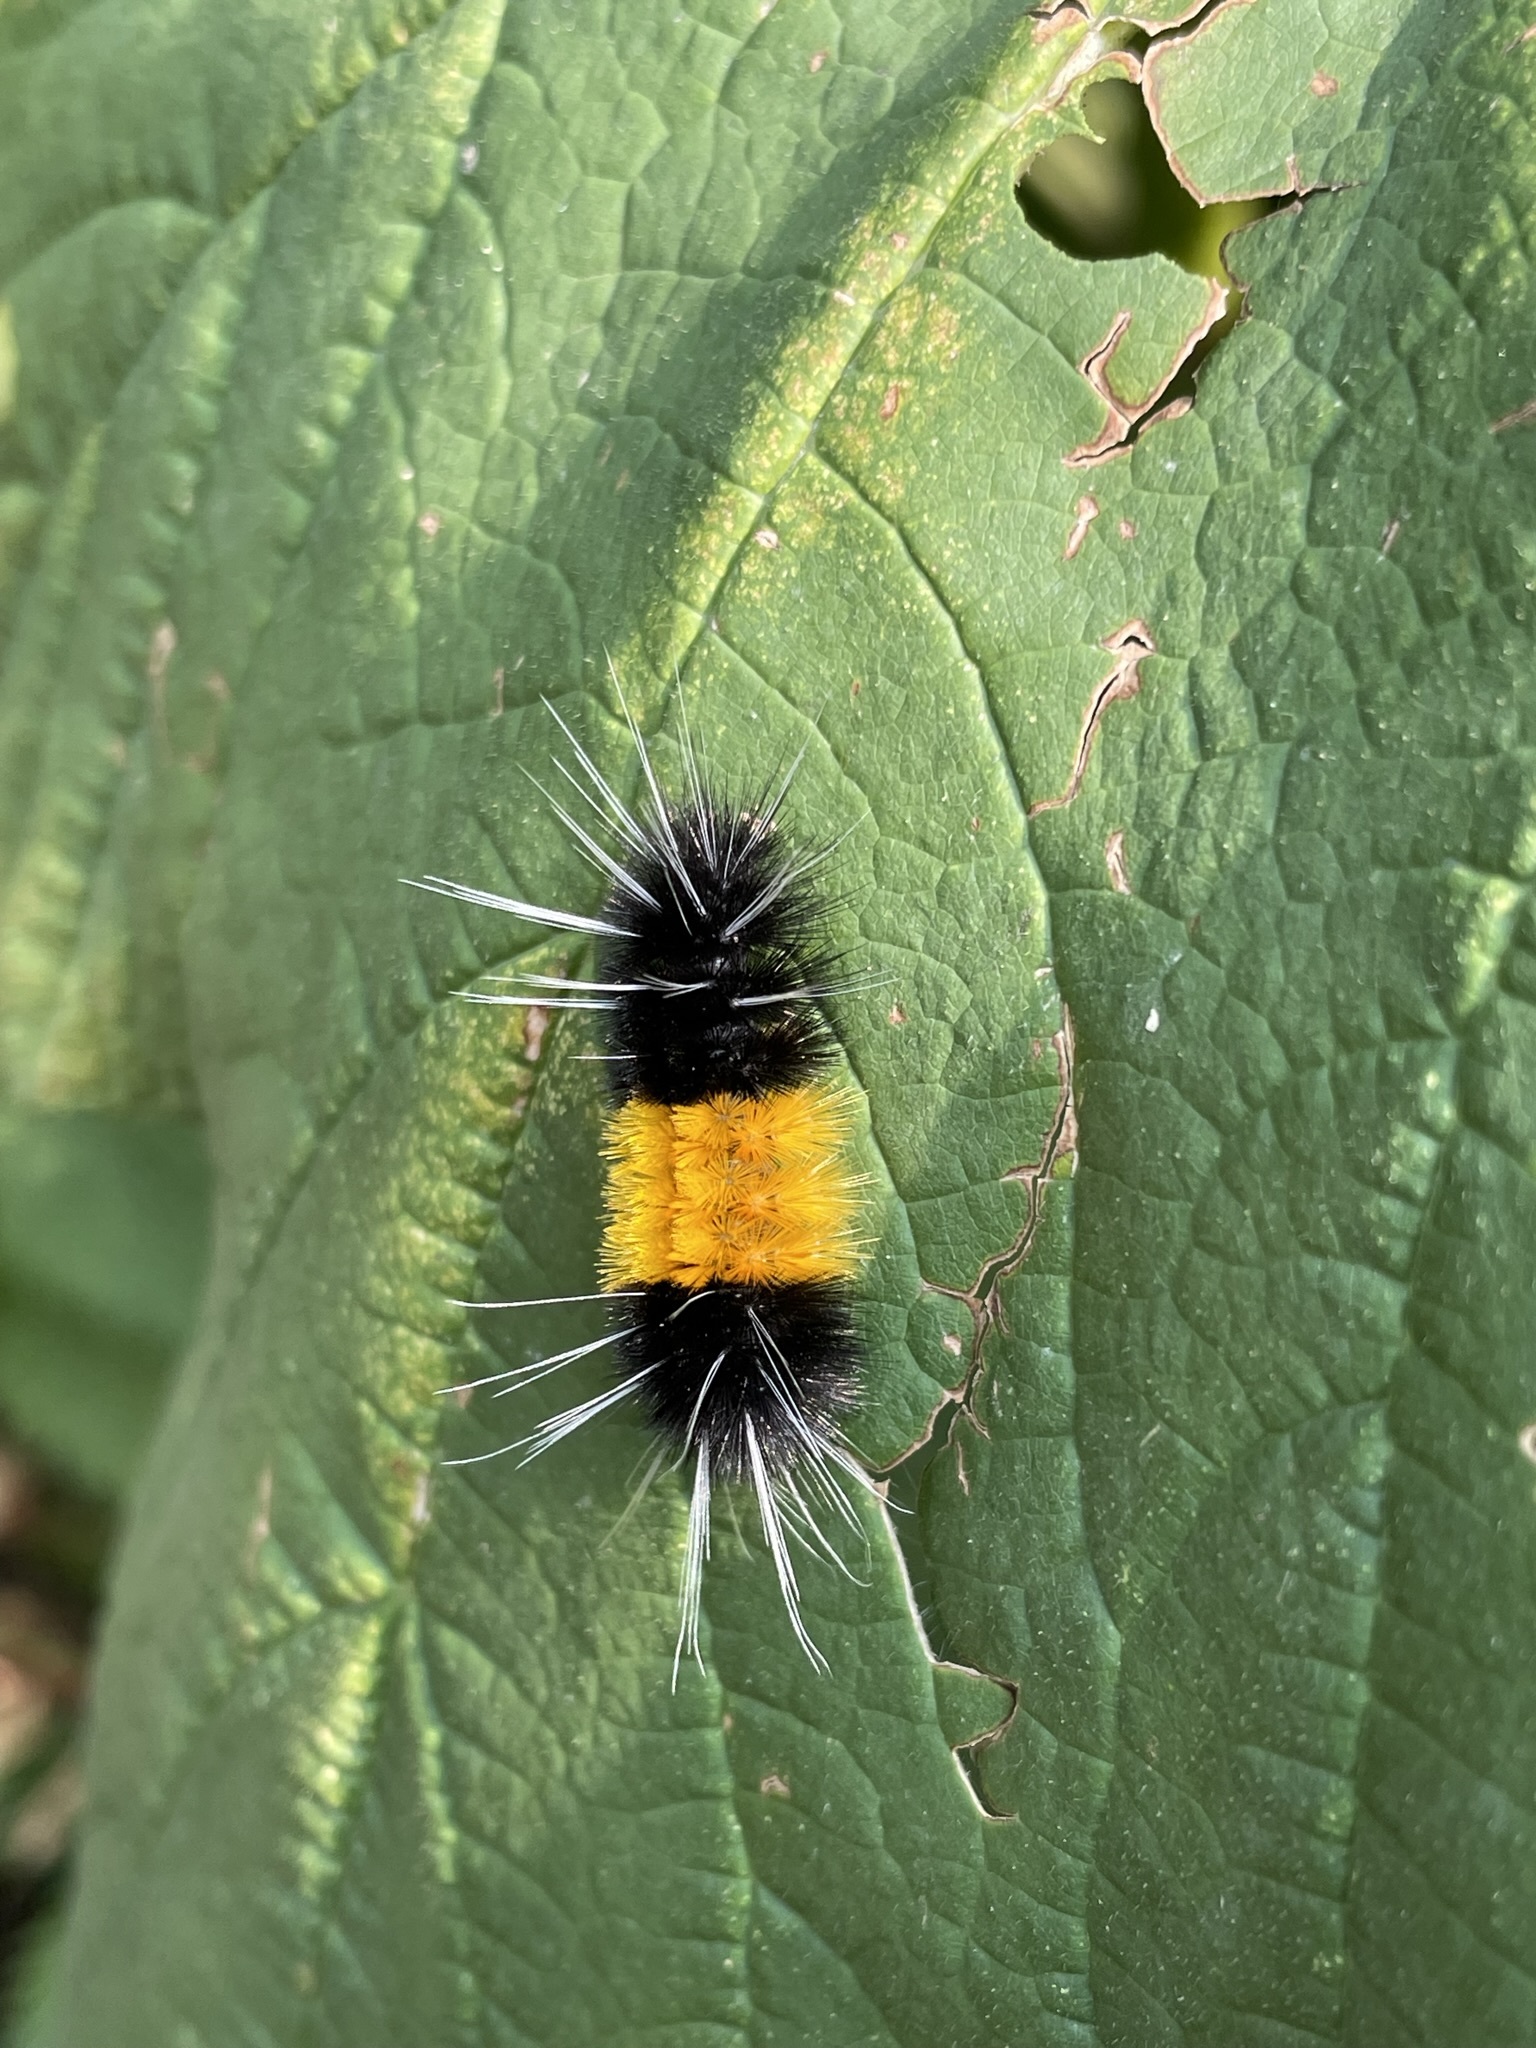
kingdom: Animalia
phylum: Arthropoda
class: Insecta
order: Lepidoptera
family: Erebidae
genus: Lophocampa
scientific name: Lophocampa maculata
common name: Spotted tussock moth
